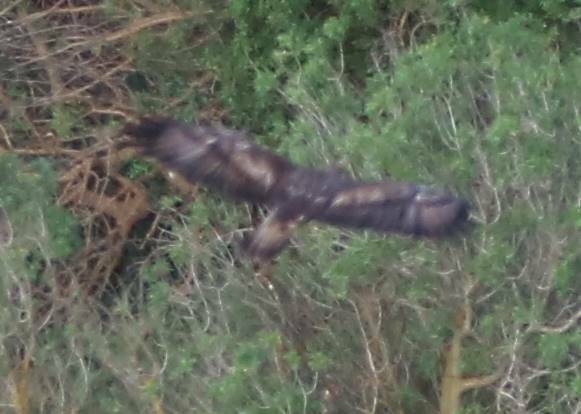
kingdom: Animalia
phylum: Chordata
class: Aves
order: Accipitriformes
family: Accipitridae
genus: Aquila
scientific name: Aquila chrysaetos
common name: Golden eagle
